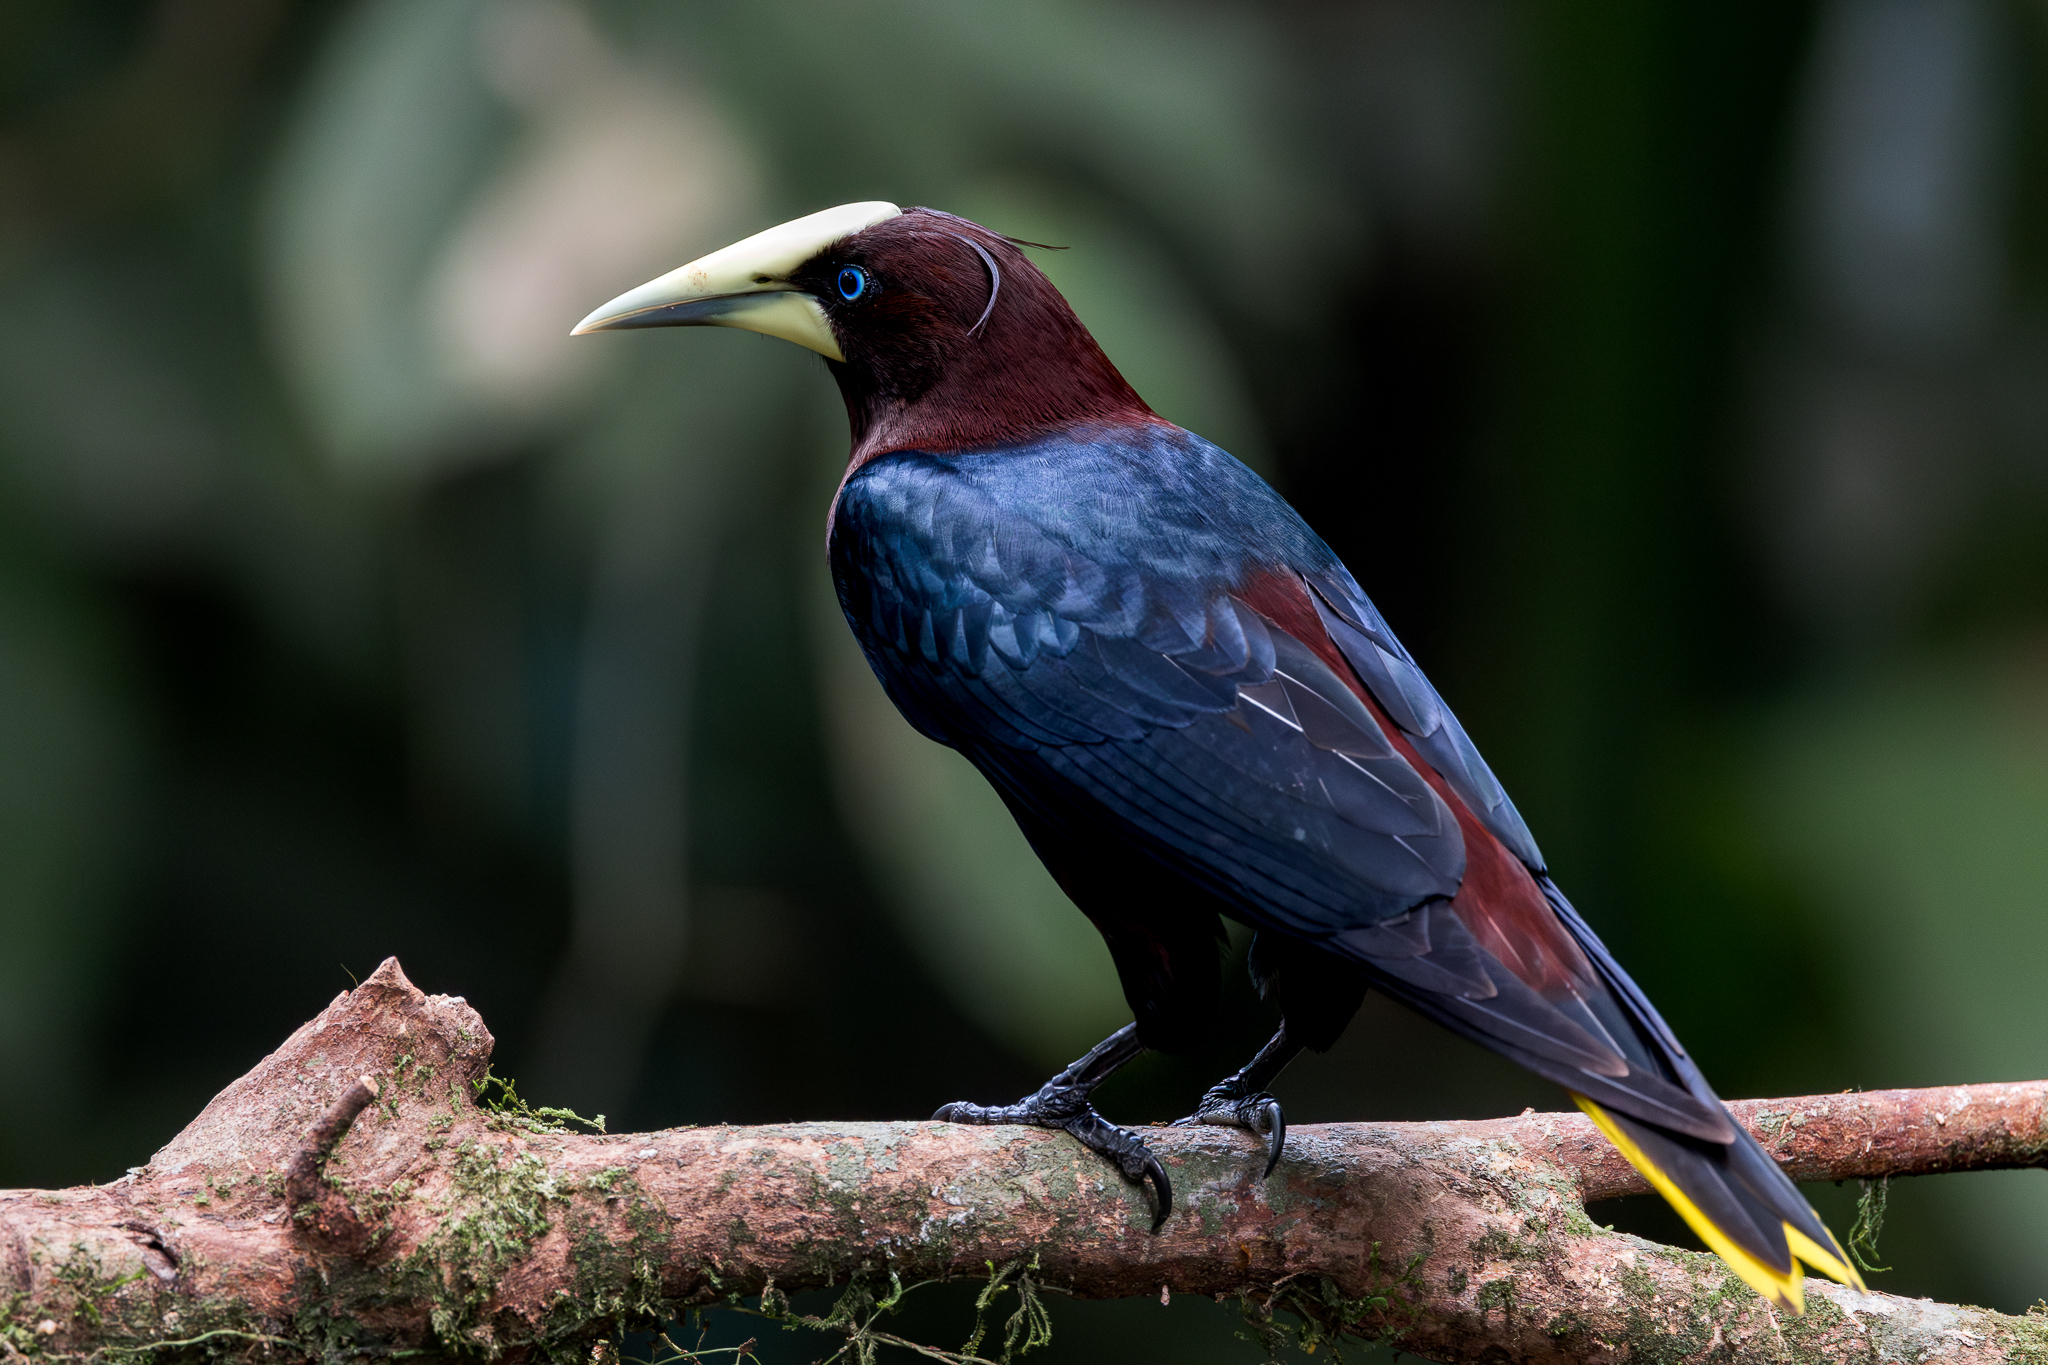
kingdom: Animalia
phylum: Chordata
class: Aves
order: Passeriformes
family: Icteridae
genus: Psarocolius
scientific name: Psarocolius wagleri
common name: Chestnut-headed oropendola
